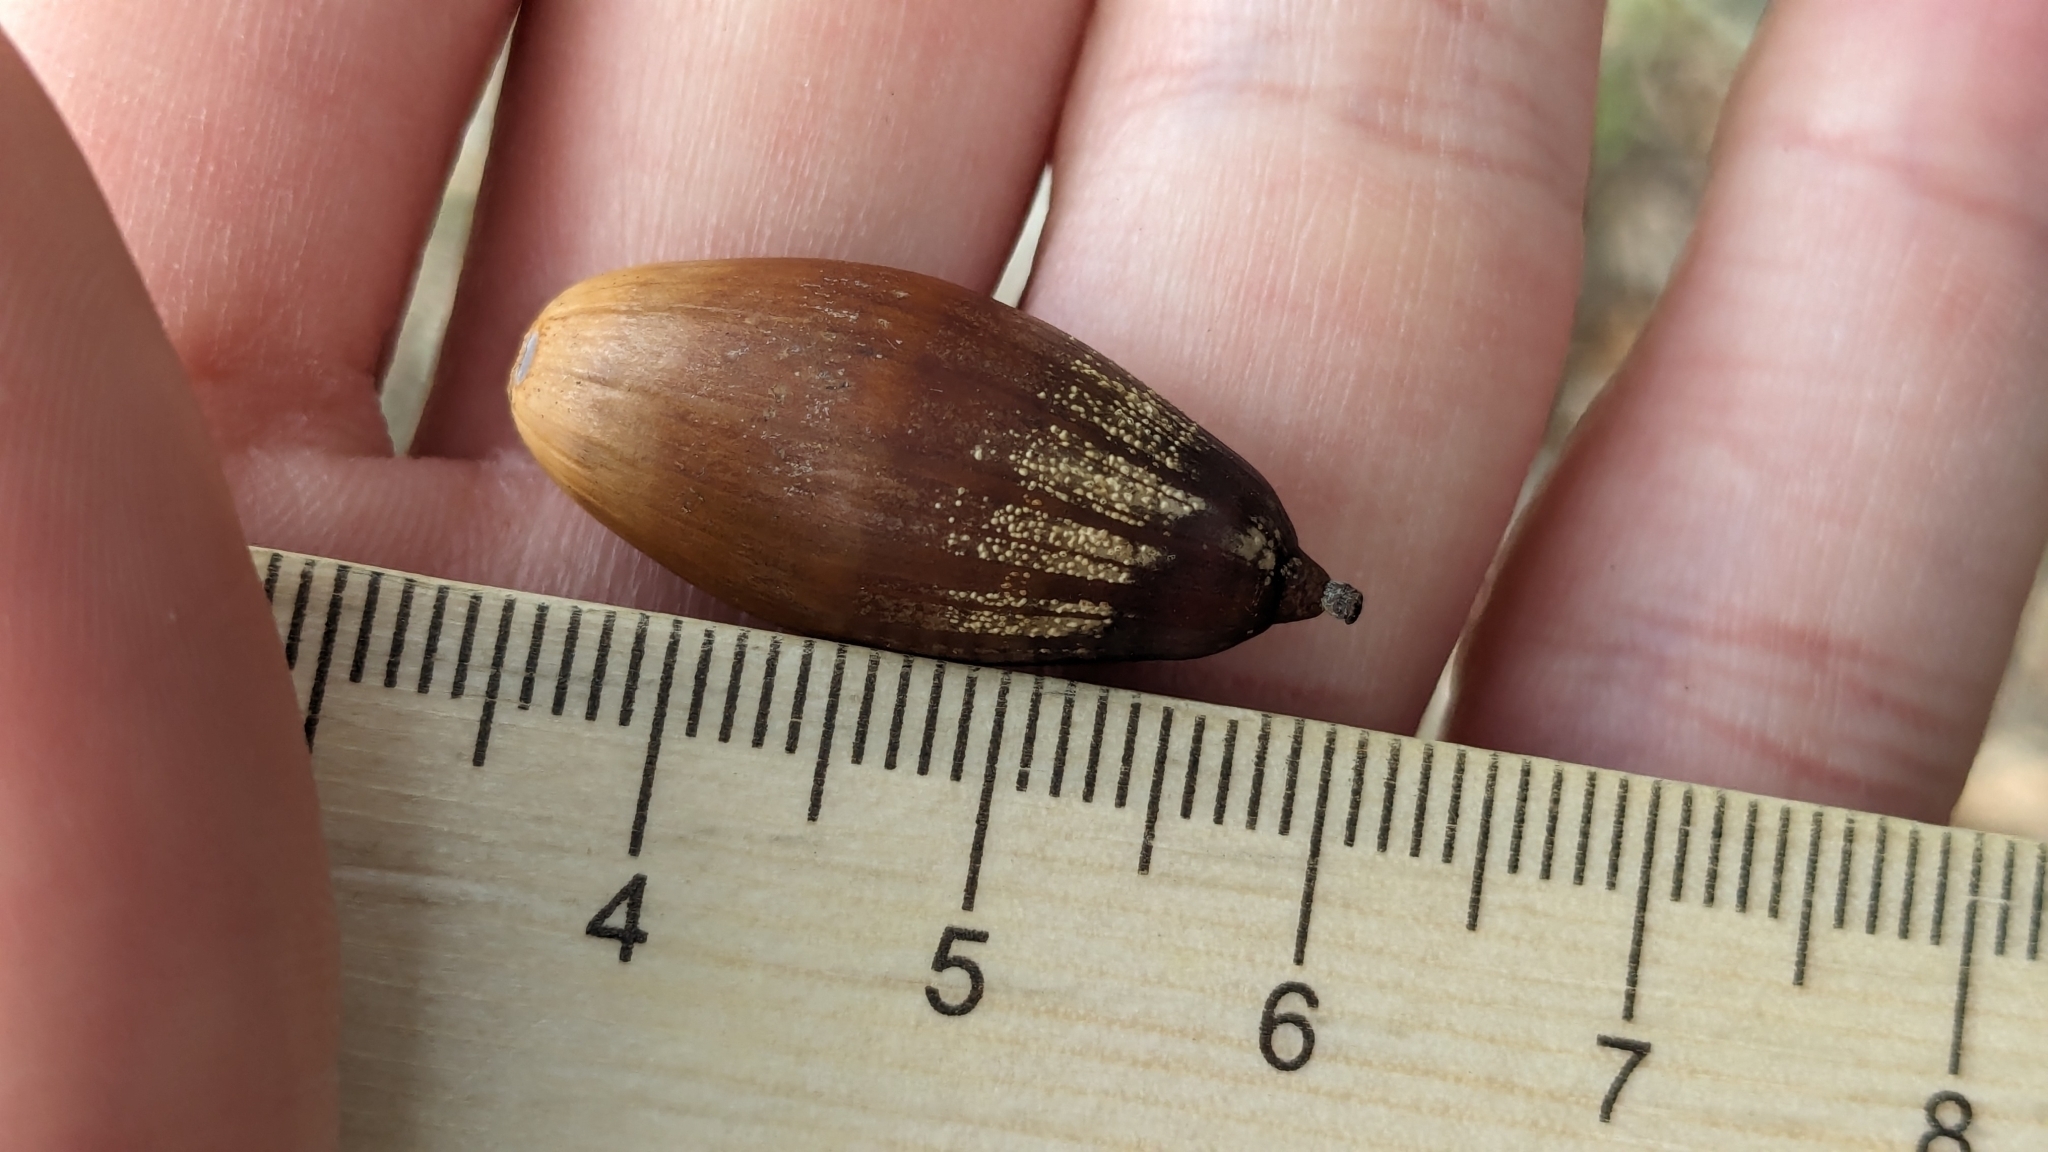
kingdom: Fungi
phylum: Ascomycota
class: Sordariomycetes
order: Phyllachorales
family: Phyllachoraceae
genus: Trabutia
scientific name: Trabutia quercina
